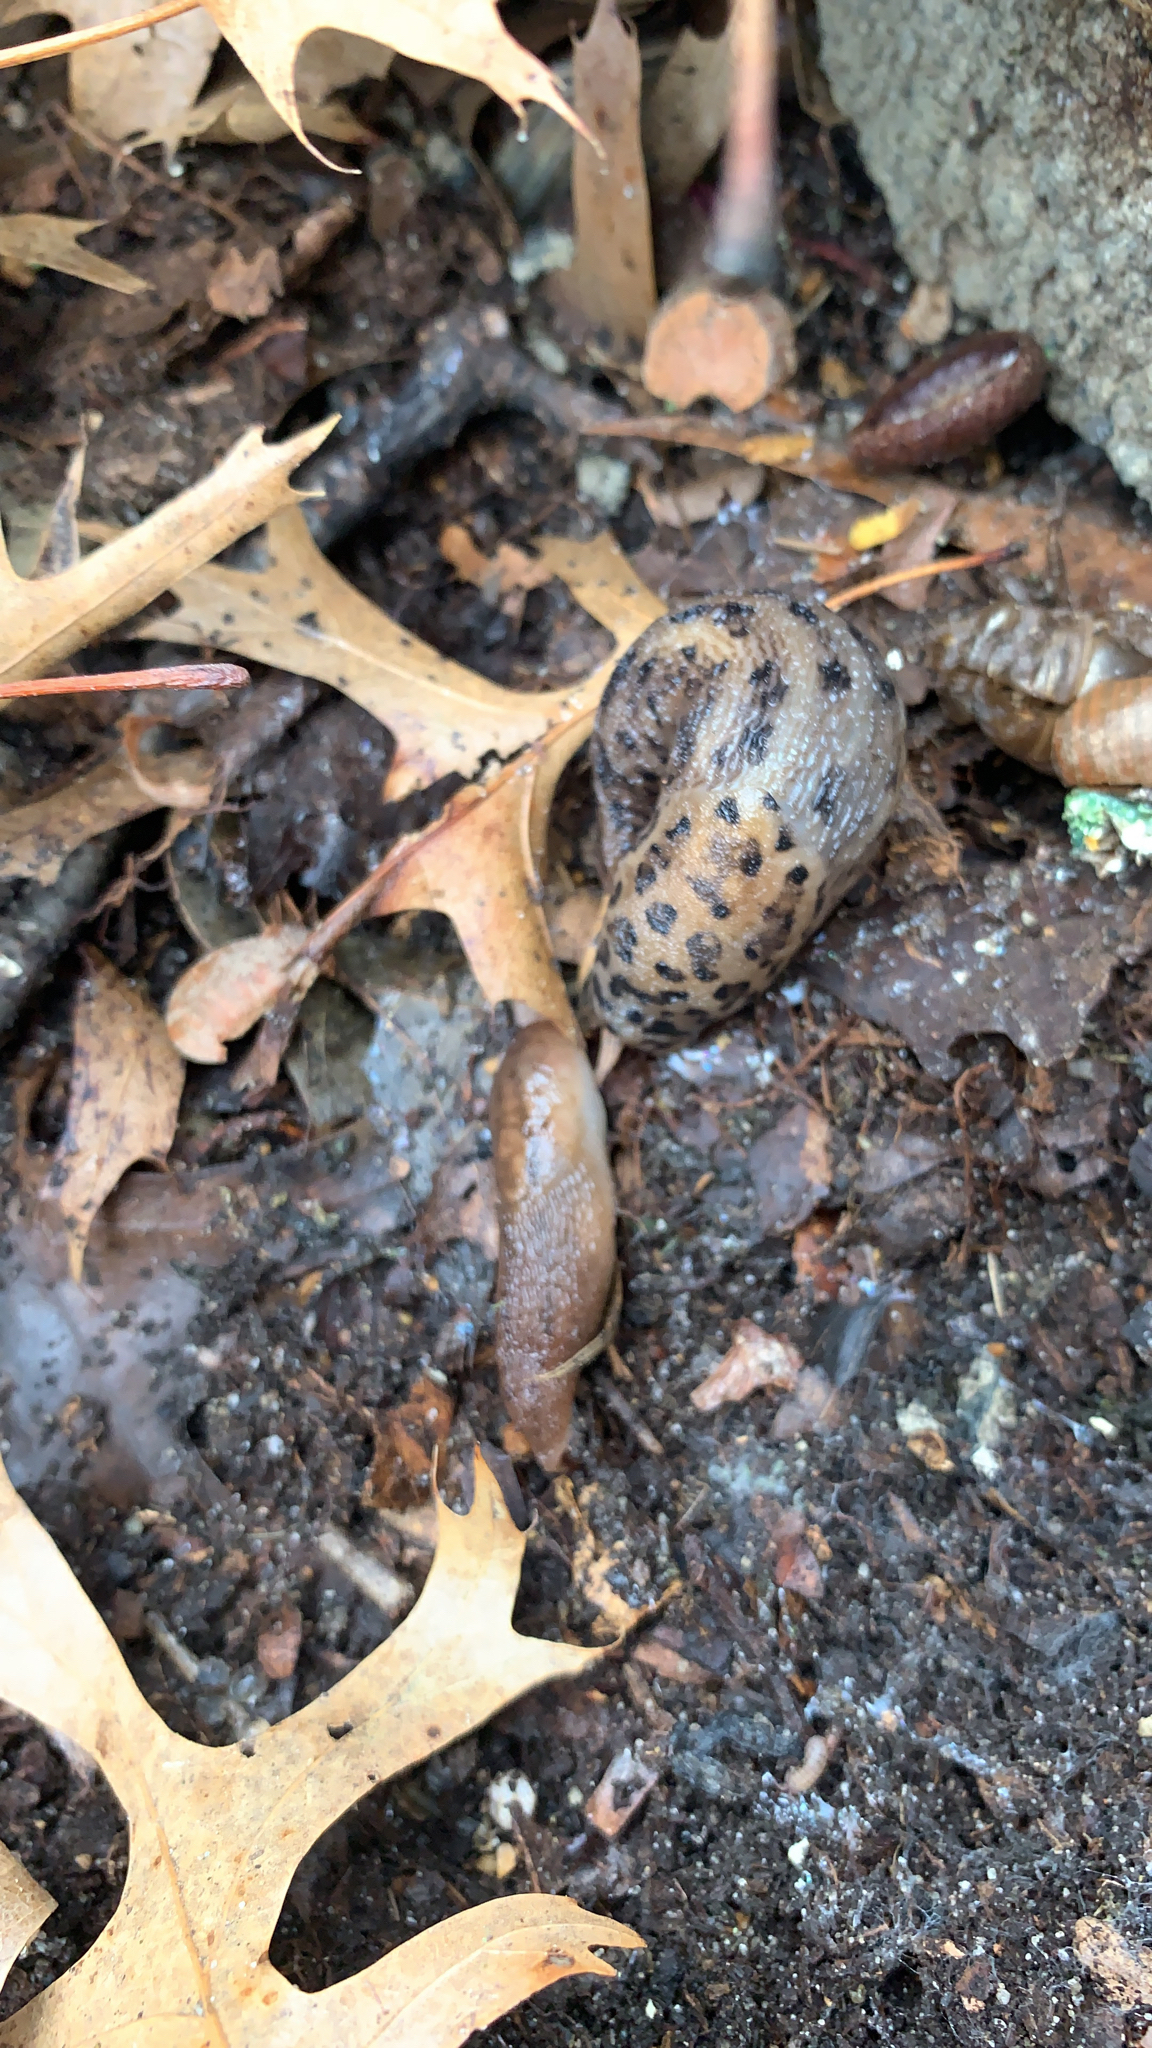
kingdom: Animalia
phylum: Mollusca
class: Gastropoda
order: Stylommatophora
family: Limacidae
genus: Limax
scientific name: Limax maximus
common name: Great grey slug
